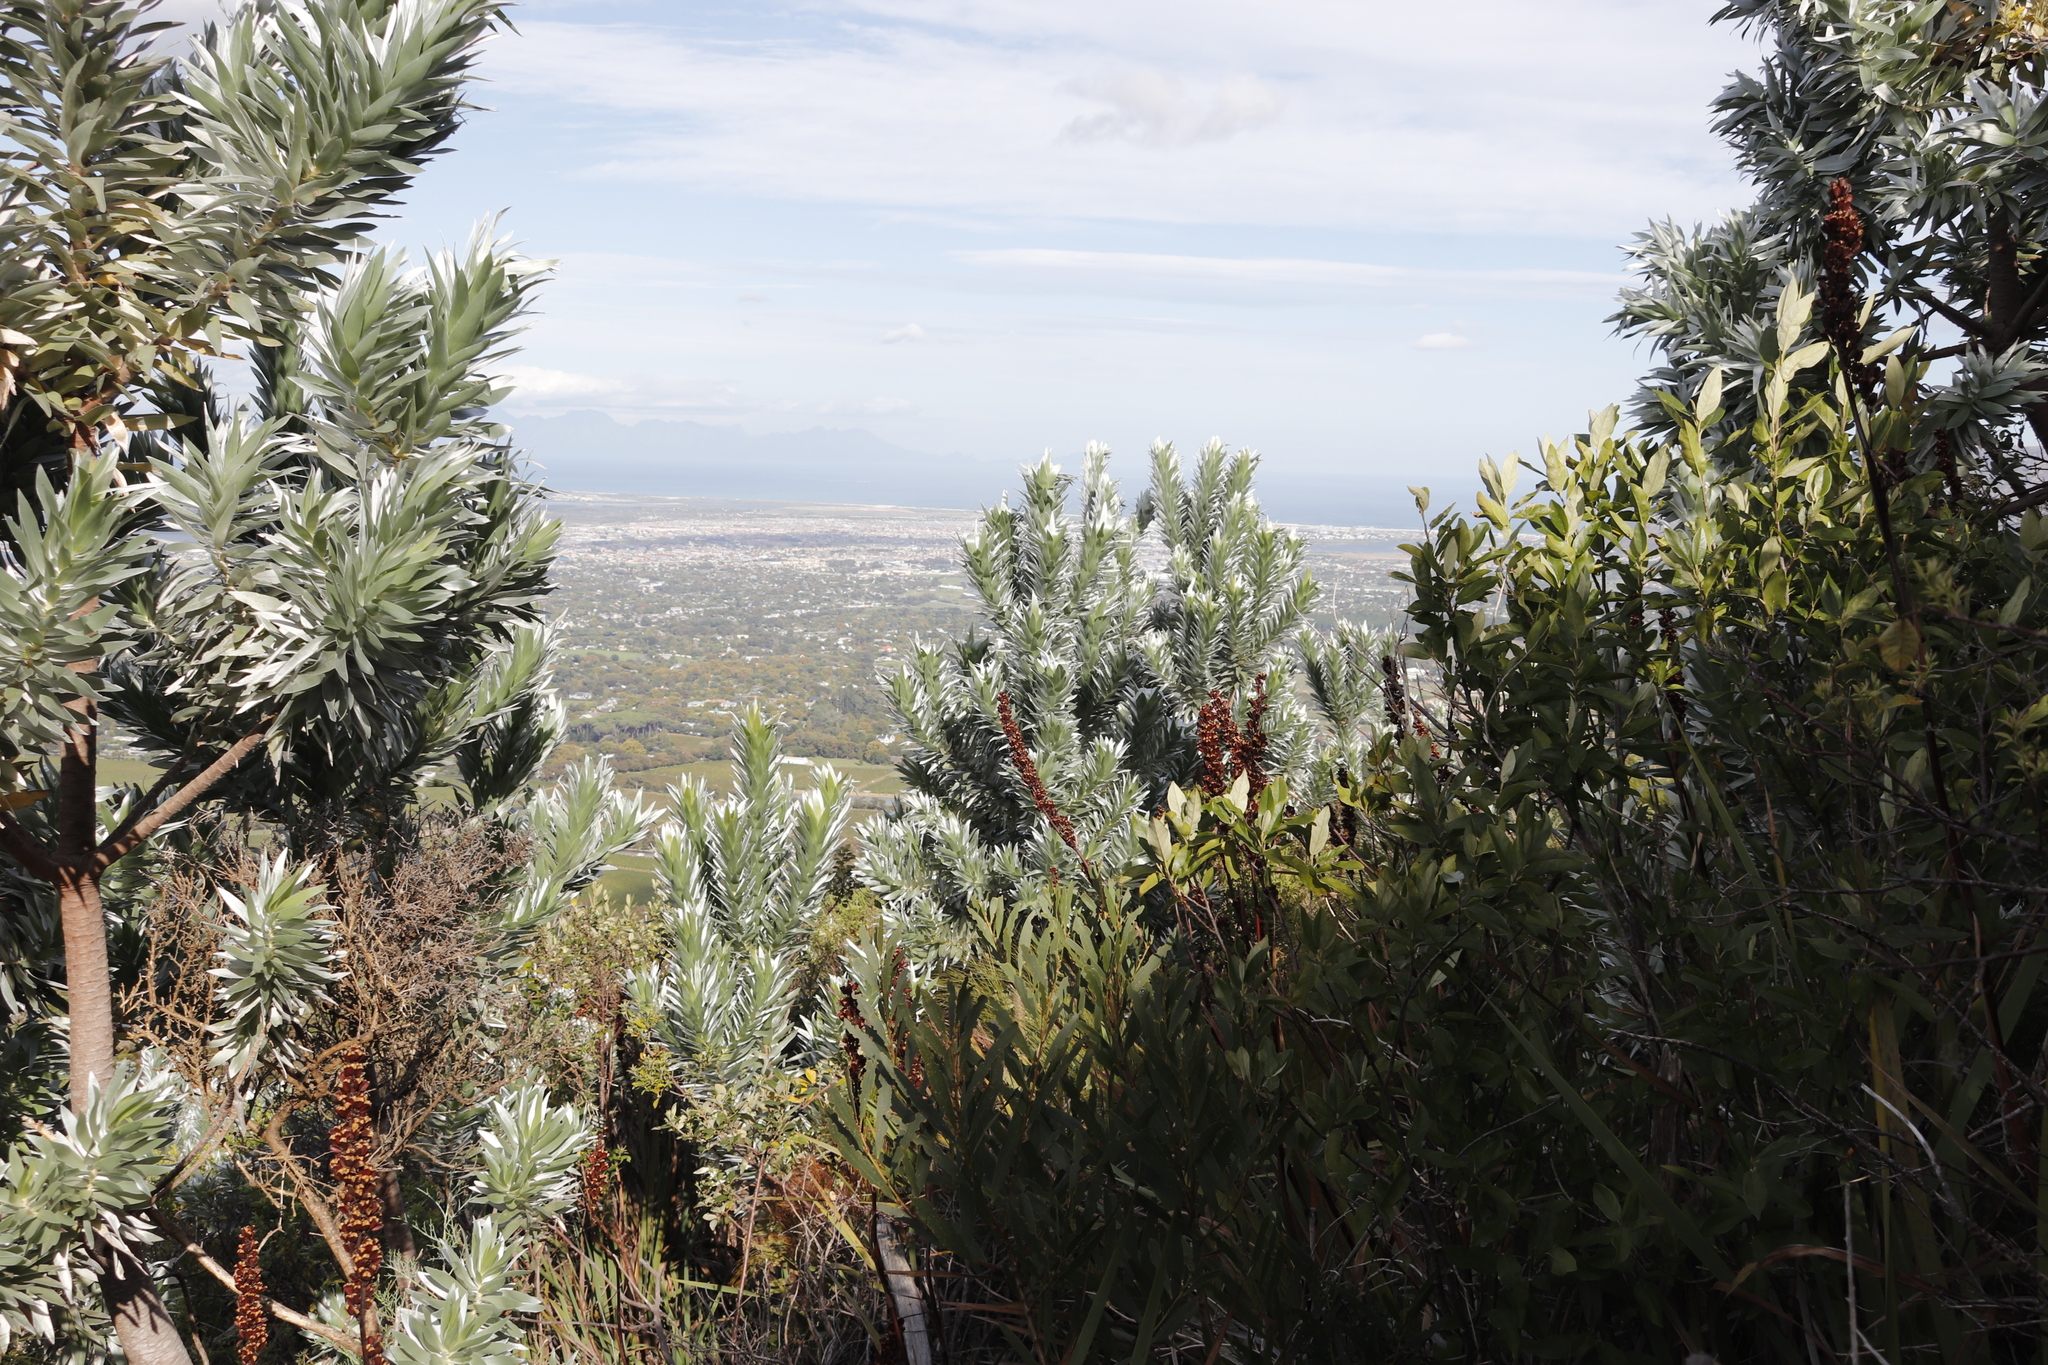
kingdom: Plantae
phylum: Tracheophyta
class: Magnoliopsida
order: Proteales
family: Proteaceae
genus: Leucadendron
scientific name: Leucadendron argenteum
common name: Cape silver tree
